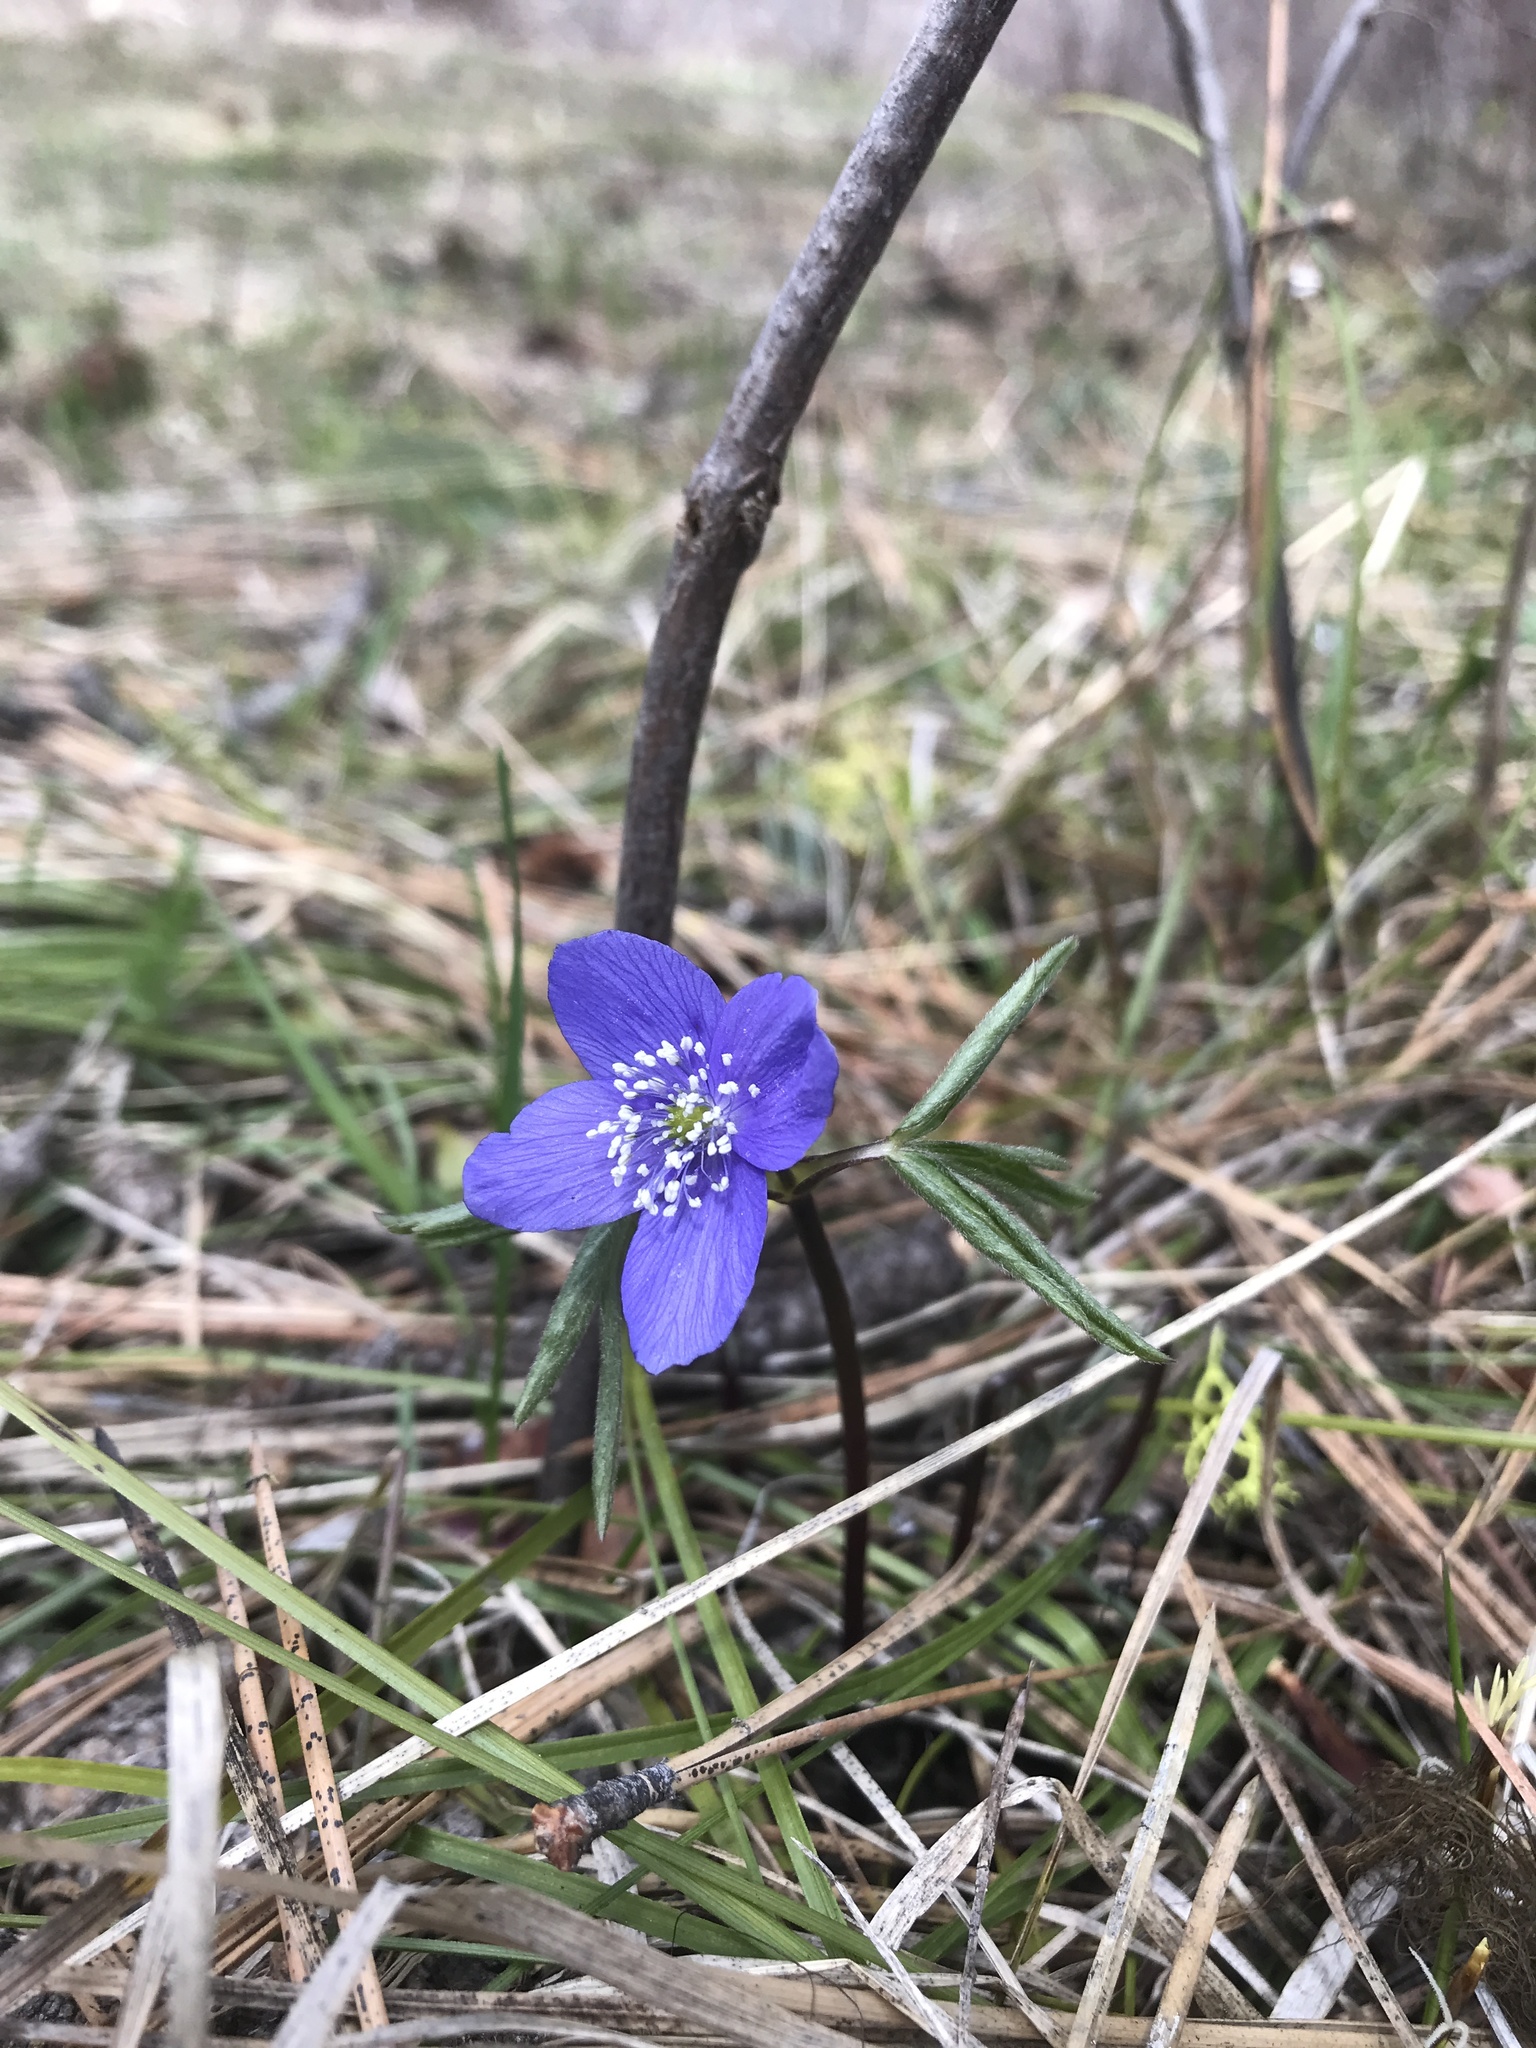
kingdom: Plantae
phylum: Tracheophyta
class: Magnoliopsida
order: Ranunculales
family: Ranunculaceae
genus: Anemone
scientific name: Anemone oregana
